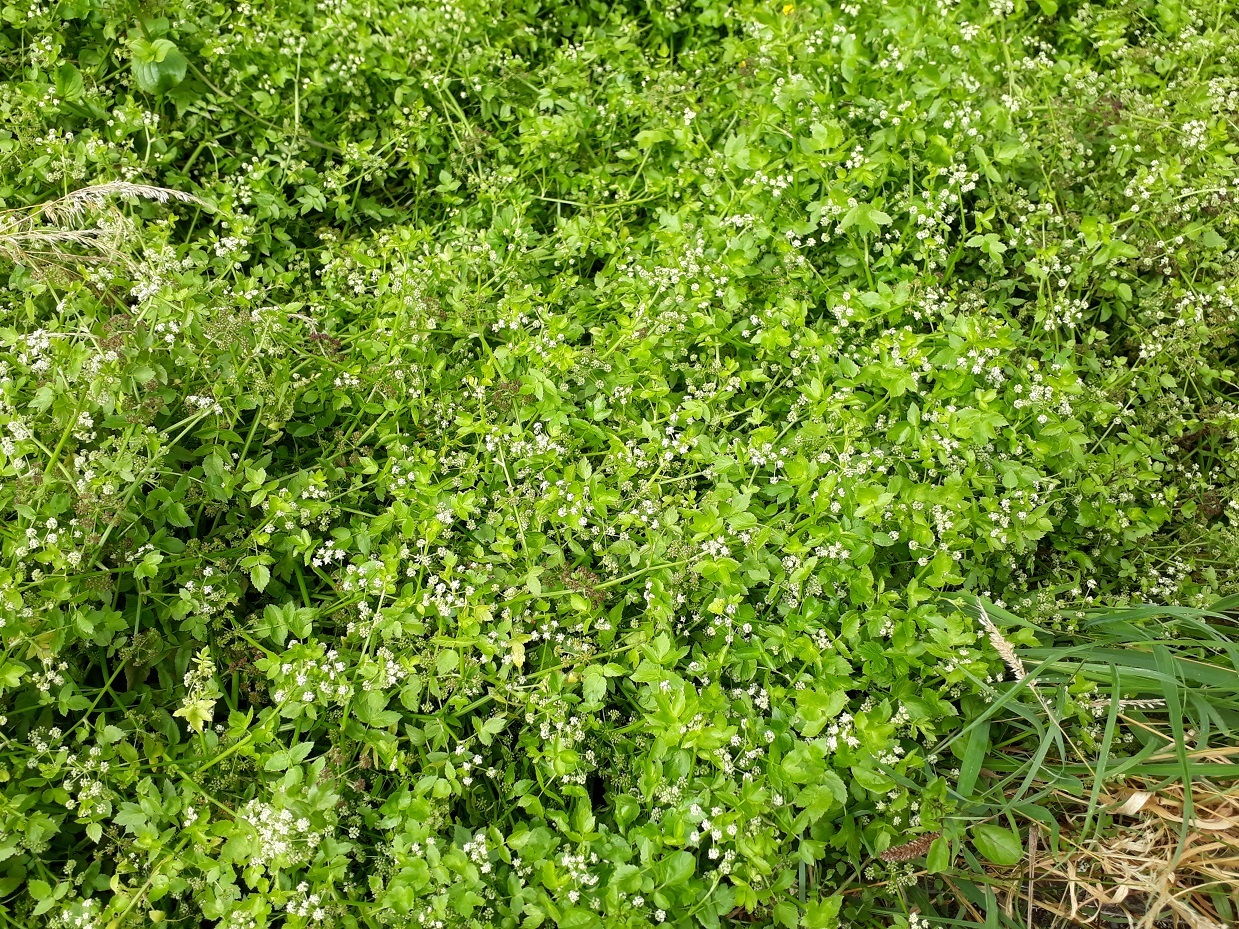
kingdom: Plantae
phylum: Tracheophyta
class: Magnoliopsida
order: Apiales
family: Apiaceae
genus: Helosciadium
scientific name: Helosciadium nodiflorum
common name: Fool's-watercress
